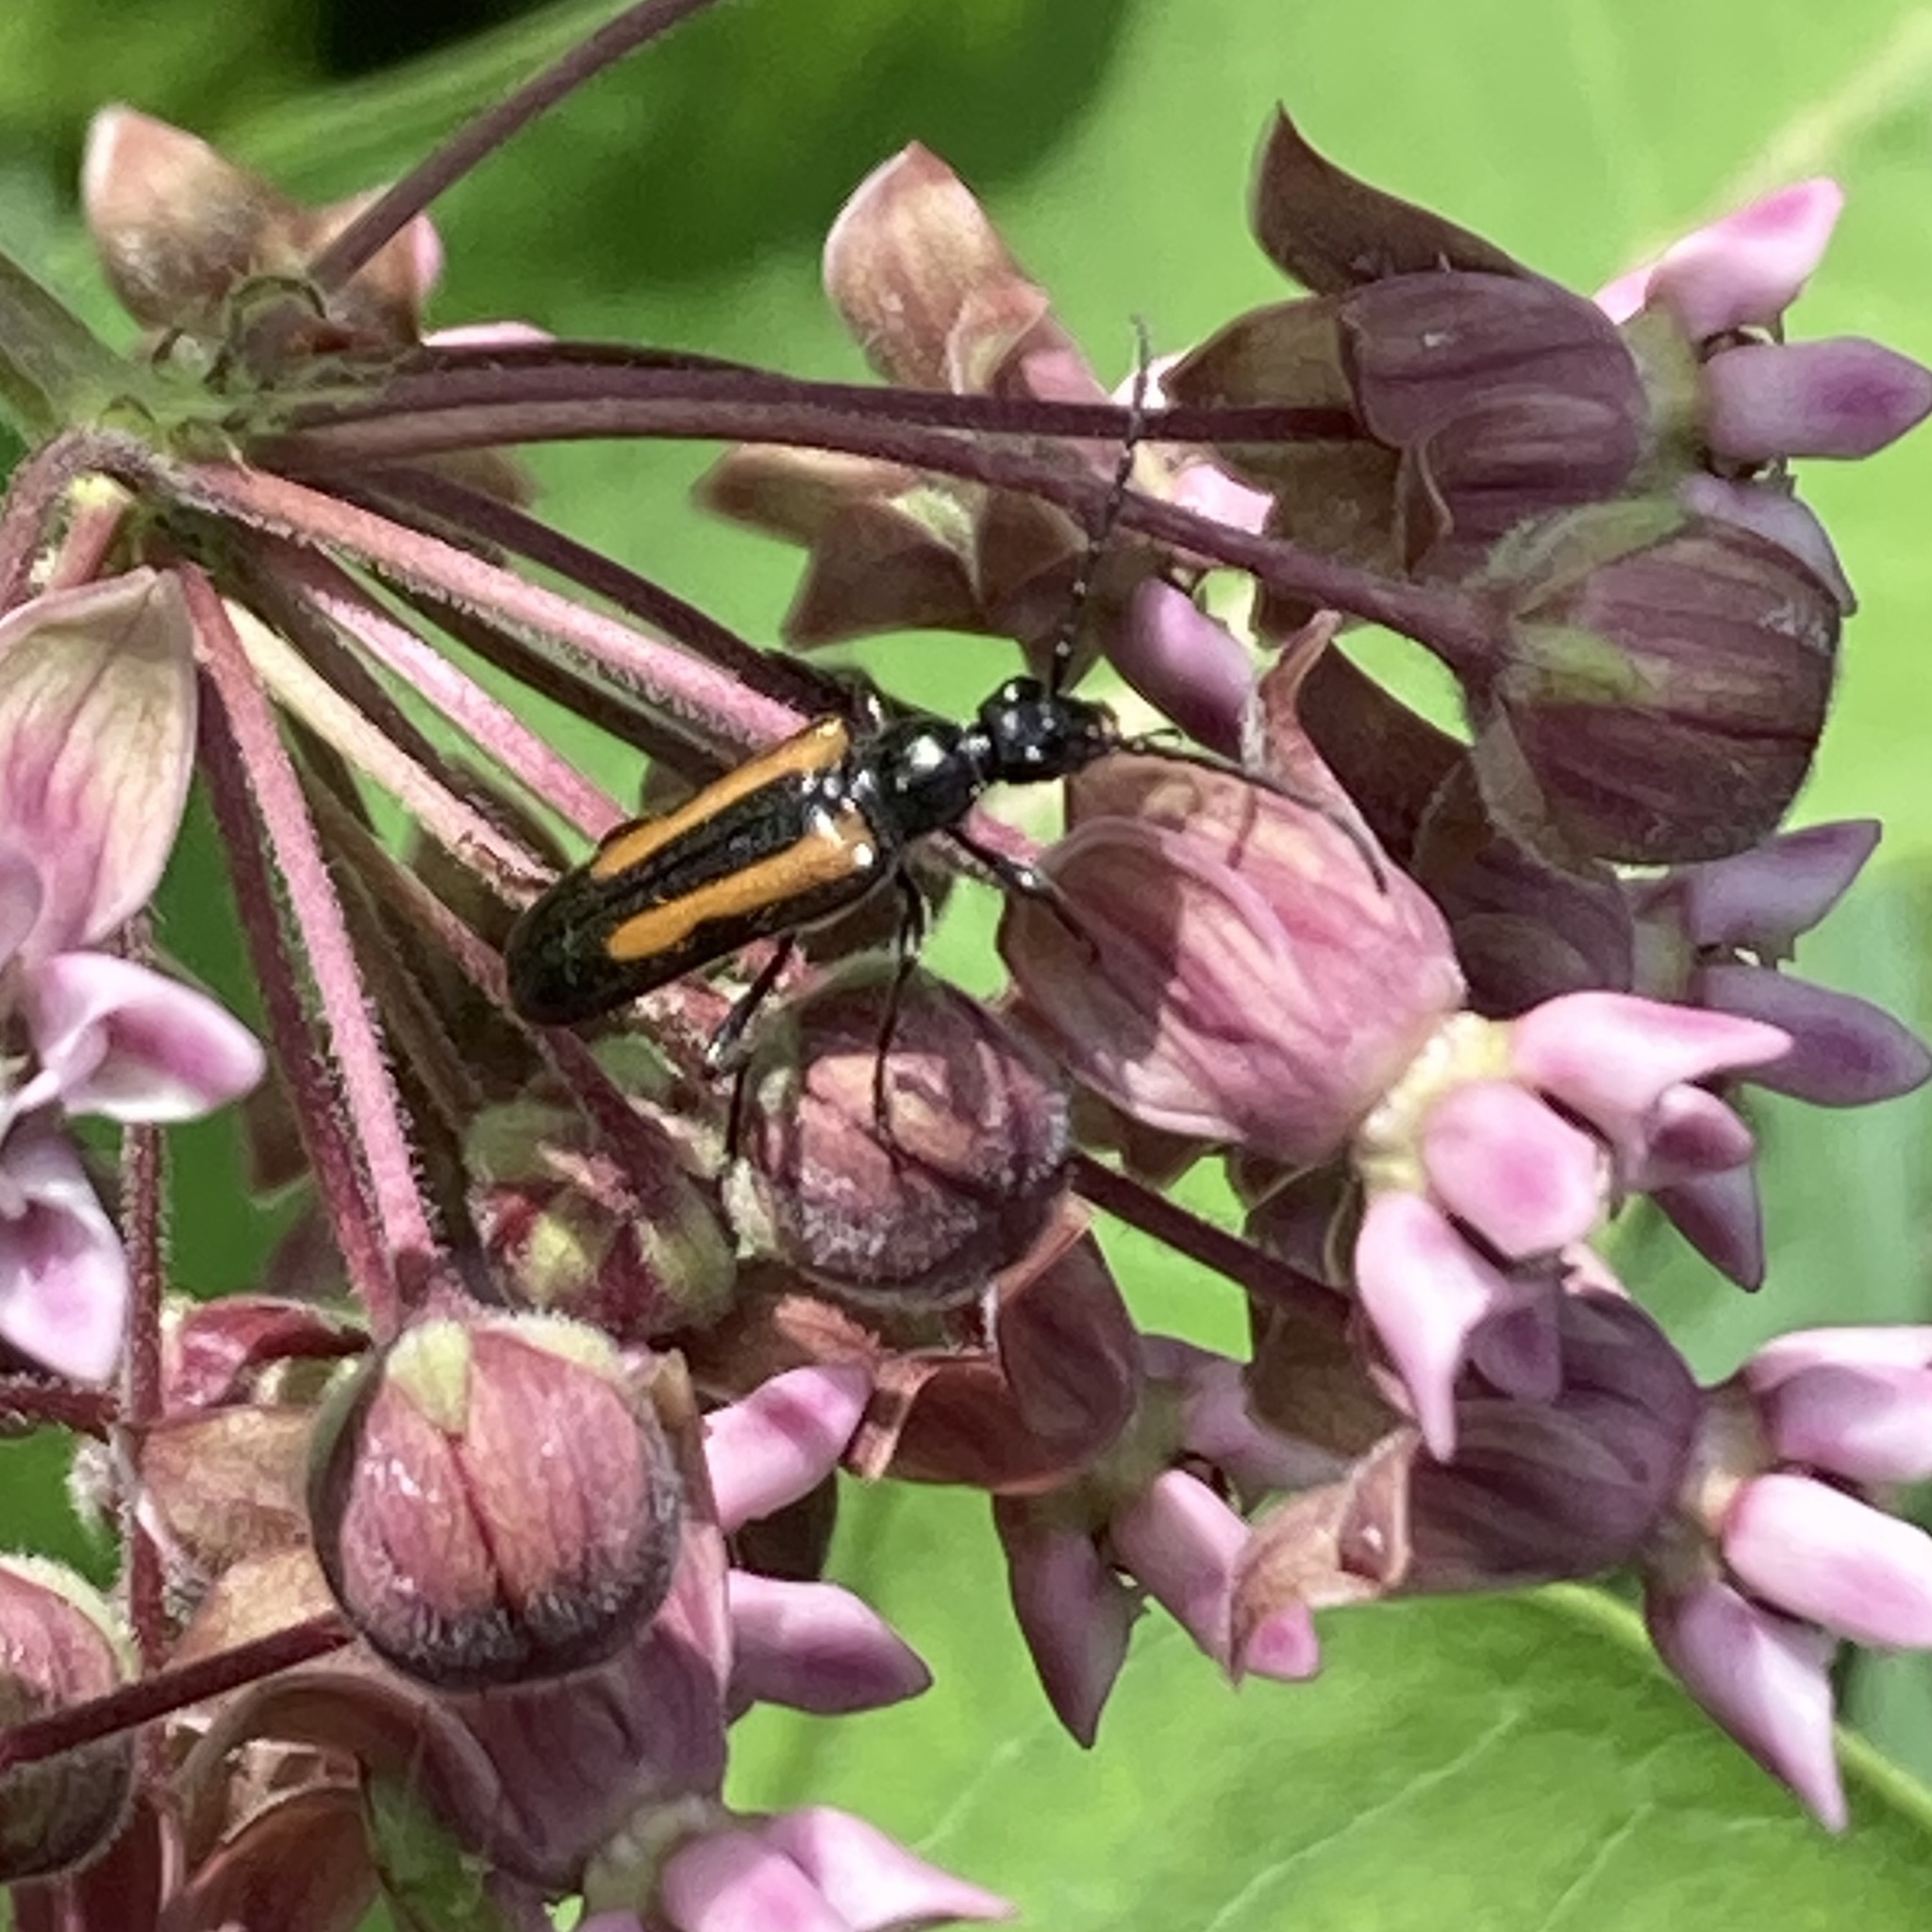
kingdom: Animalia
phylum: Arthropoda
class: Insecta
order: Coleoptera
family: Cerambycidae
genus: Strangalepta
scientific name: Strangalepta abbreviata
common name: Strangalepta flower longhorn beetle
